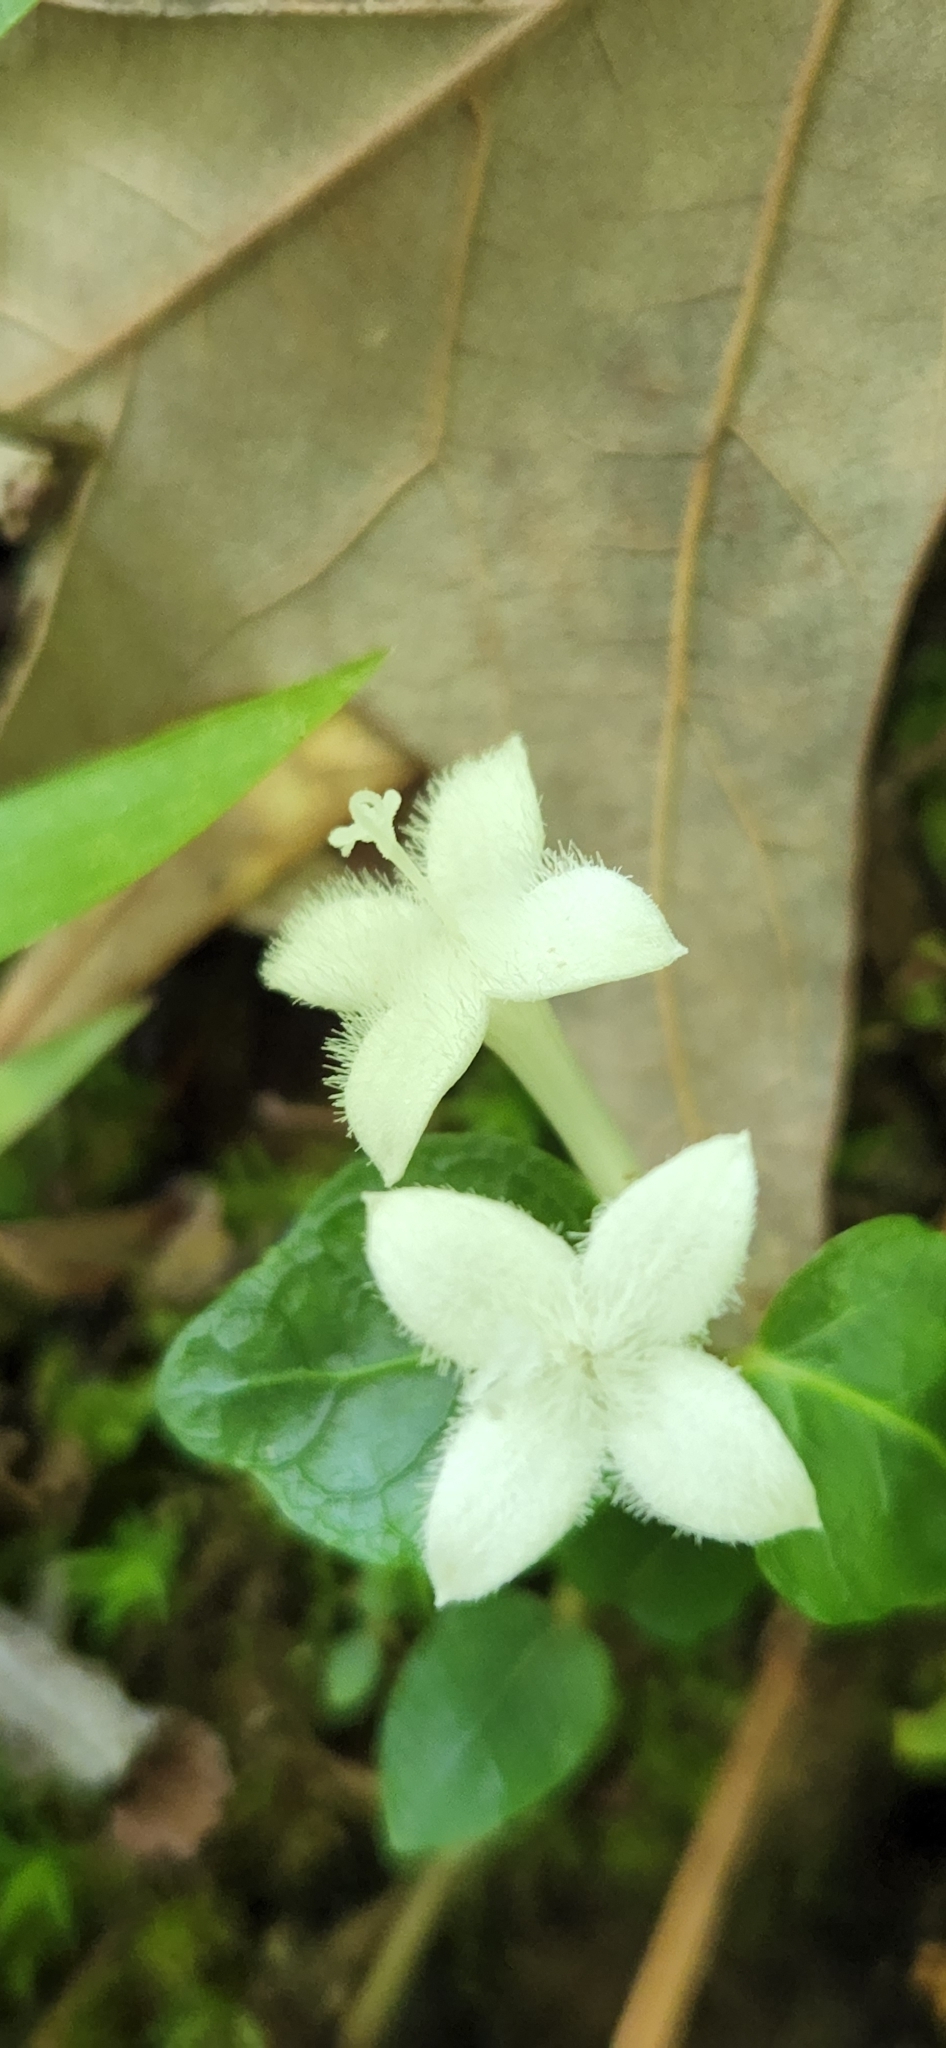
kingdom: Plantae
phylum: Tracheophyta
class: Magnoliopsida
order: Gentianales
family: Rubiaceae
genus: Mitchella
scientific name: Mitchella repens
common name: Partridge-berry
